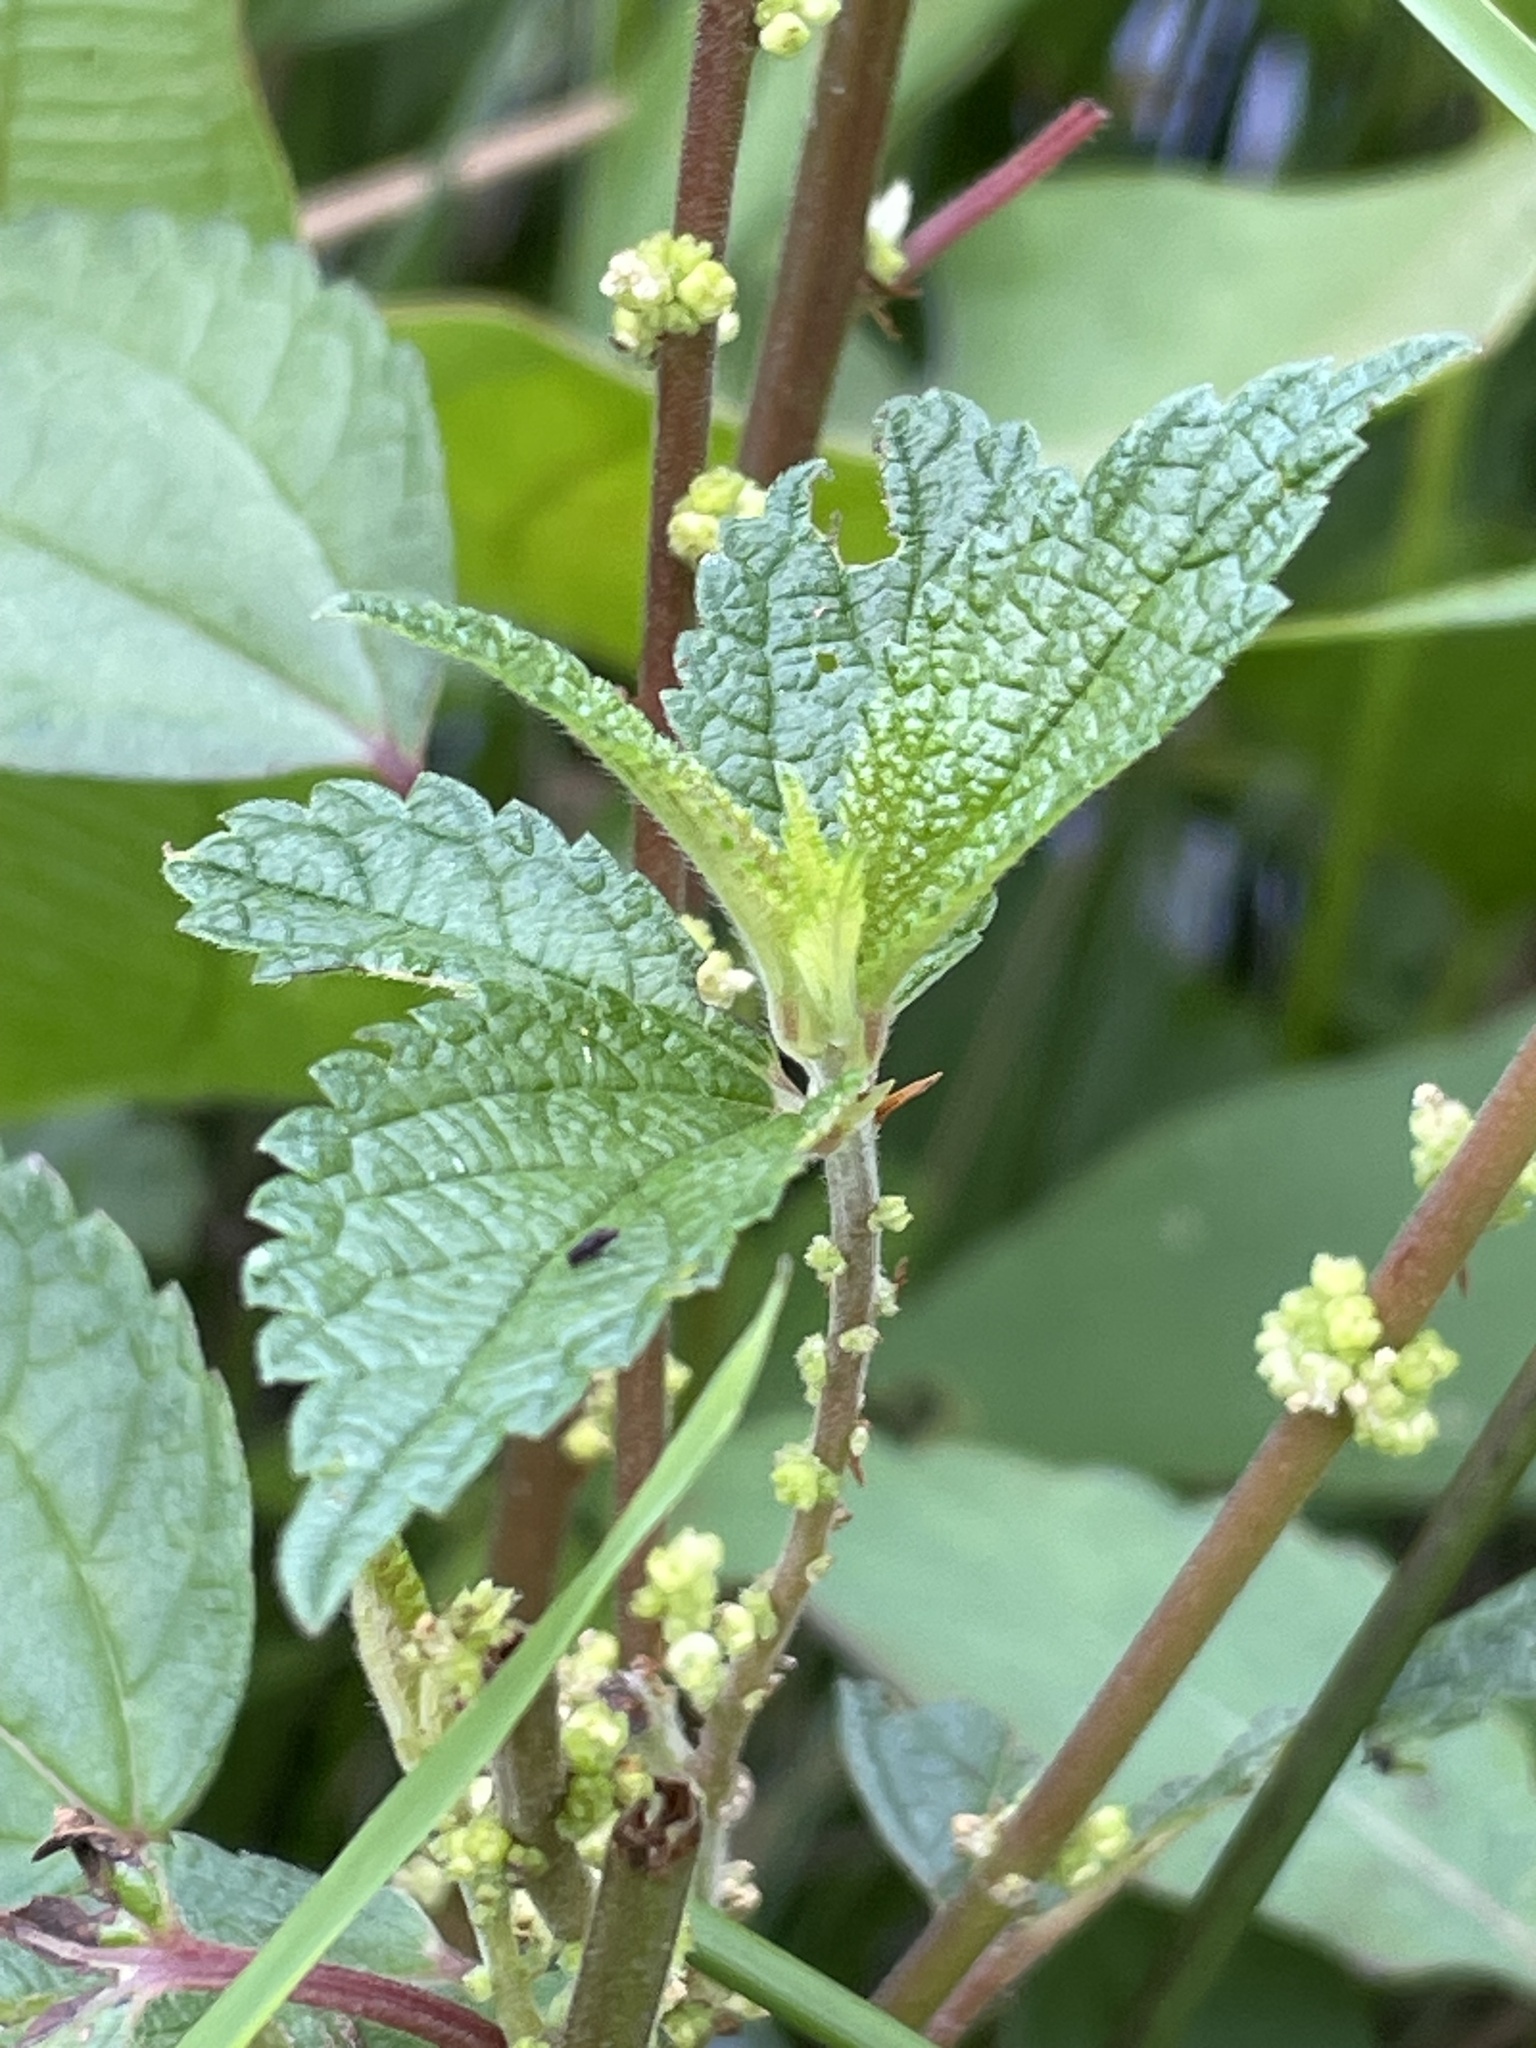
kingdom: Plantae
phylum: Tracheophyta
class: Magnoliopsida
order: Rosales
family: Urticaceae
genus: Boehmeria
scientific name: Boehmeria cylindrica
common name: Bog-hemp
